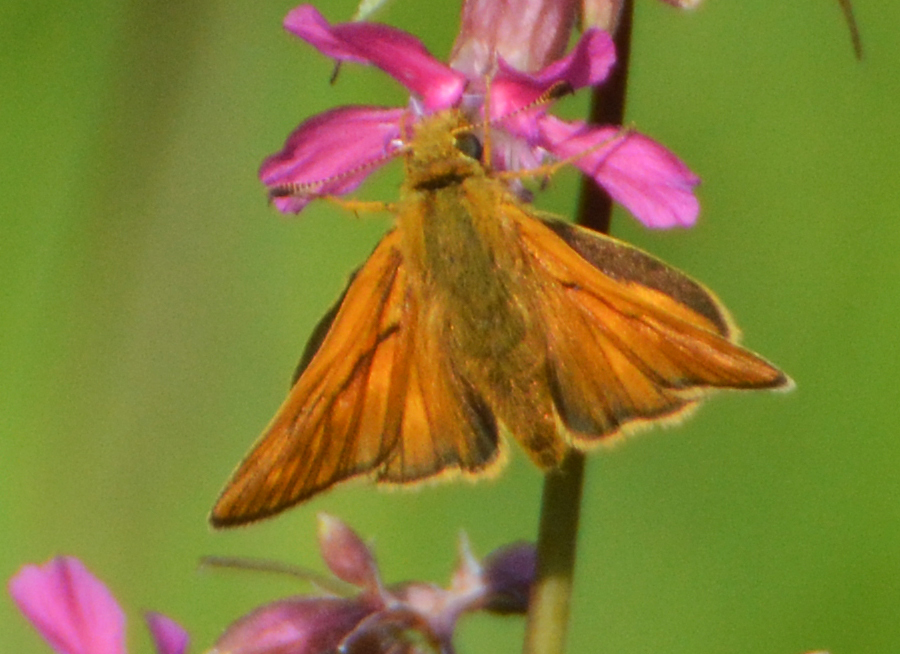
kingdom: Animalia
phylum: Arthropoda
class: Insecta
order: Lepidoptera
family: Hesperiidae
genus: Ochlodes
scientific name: Ochlodes venata
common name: Large skipper
